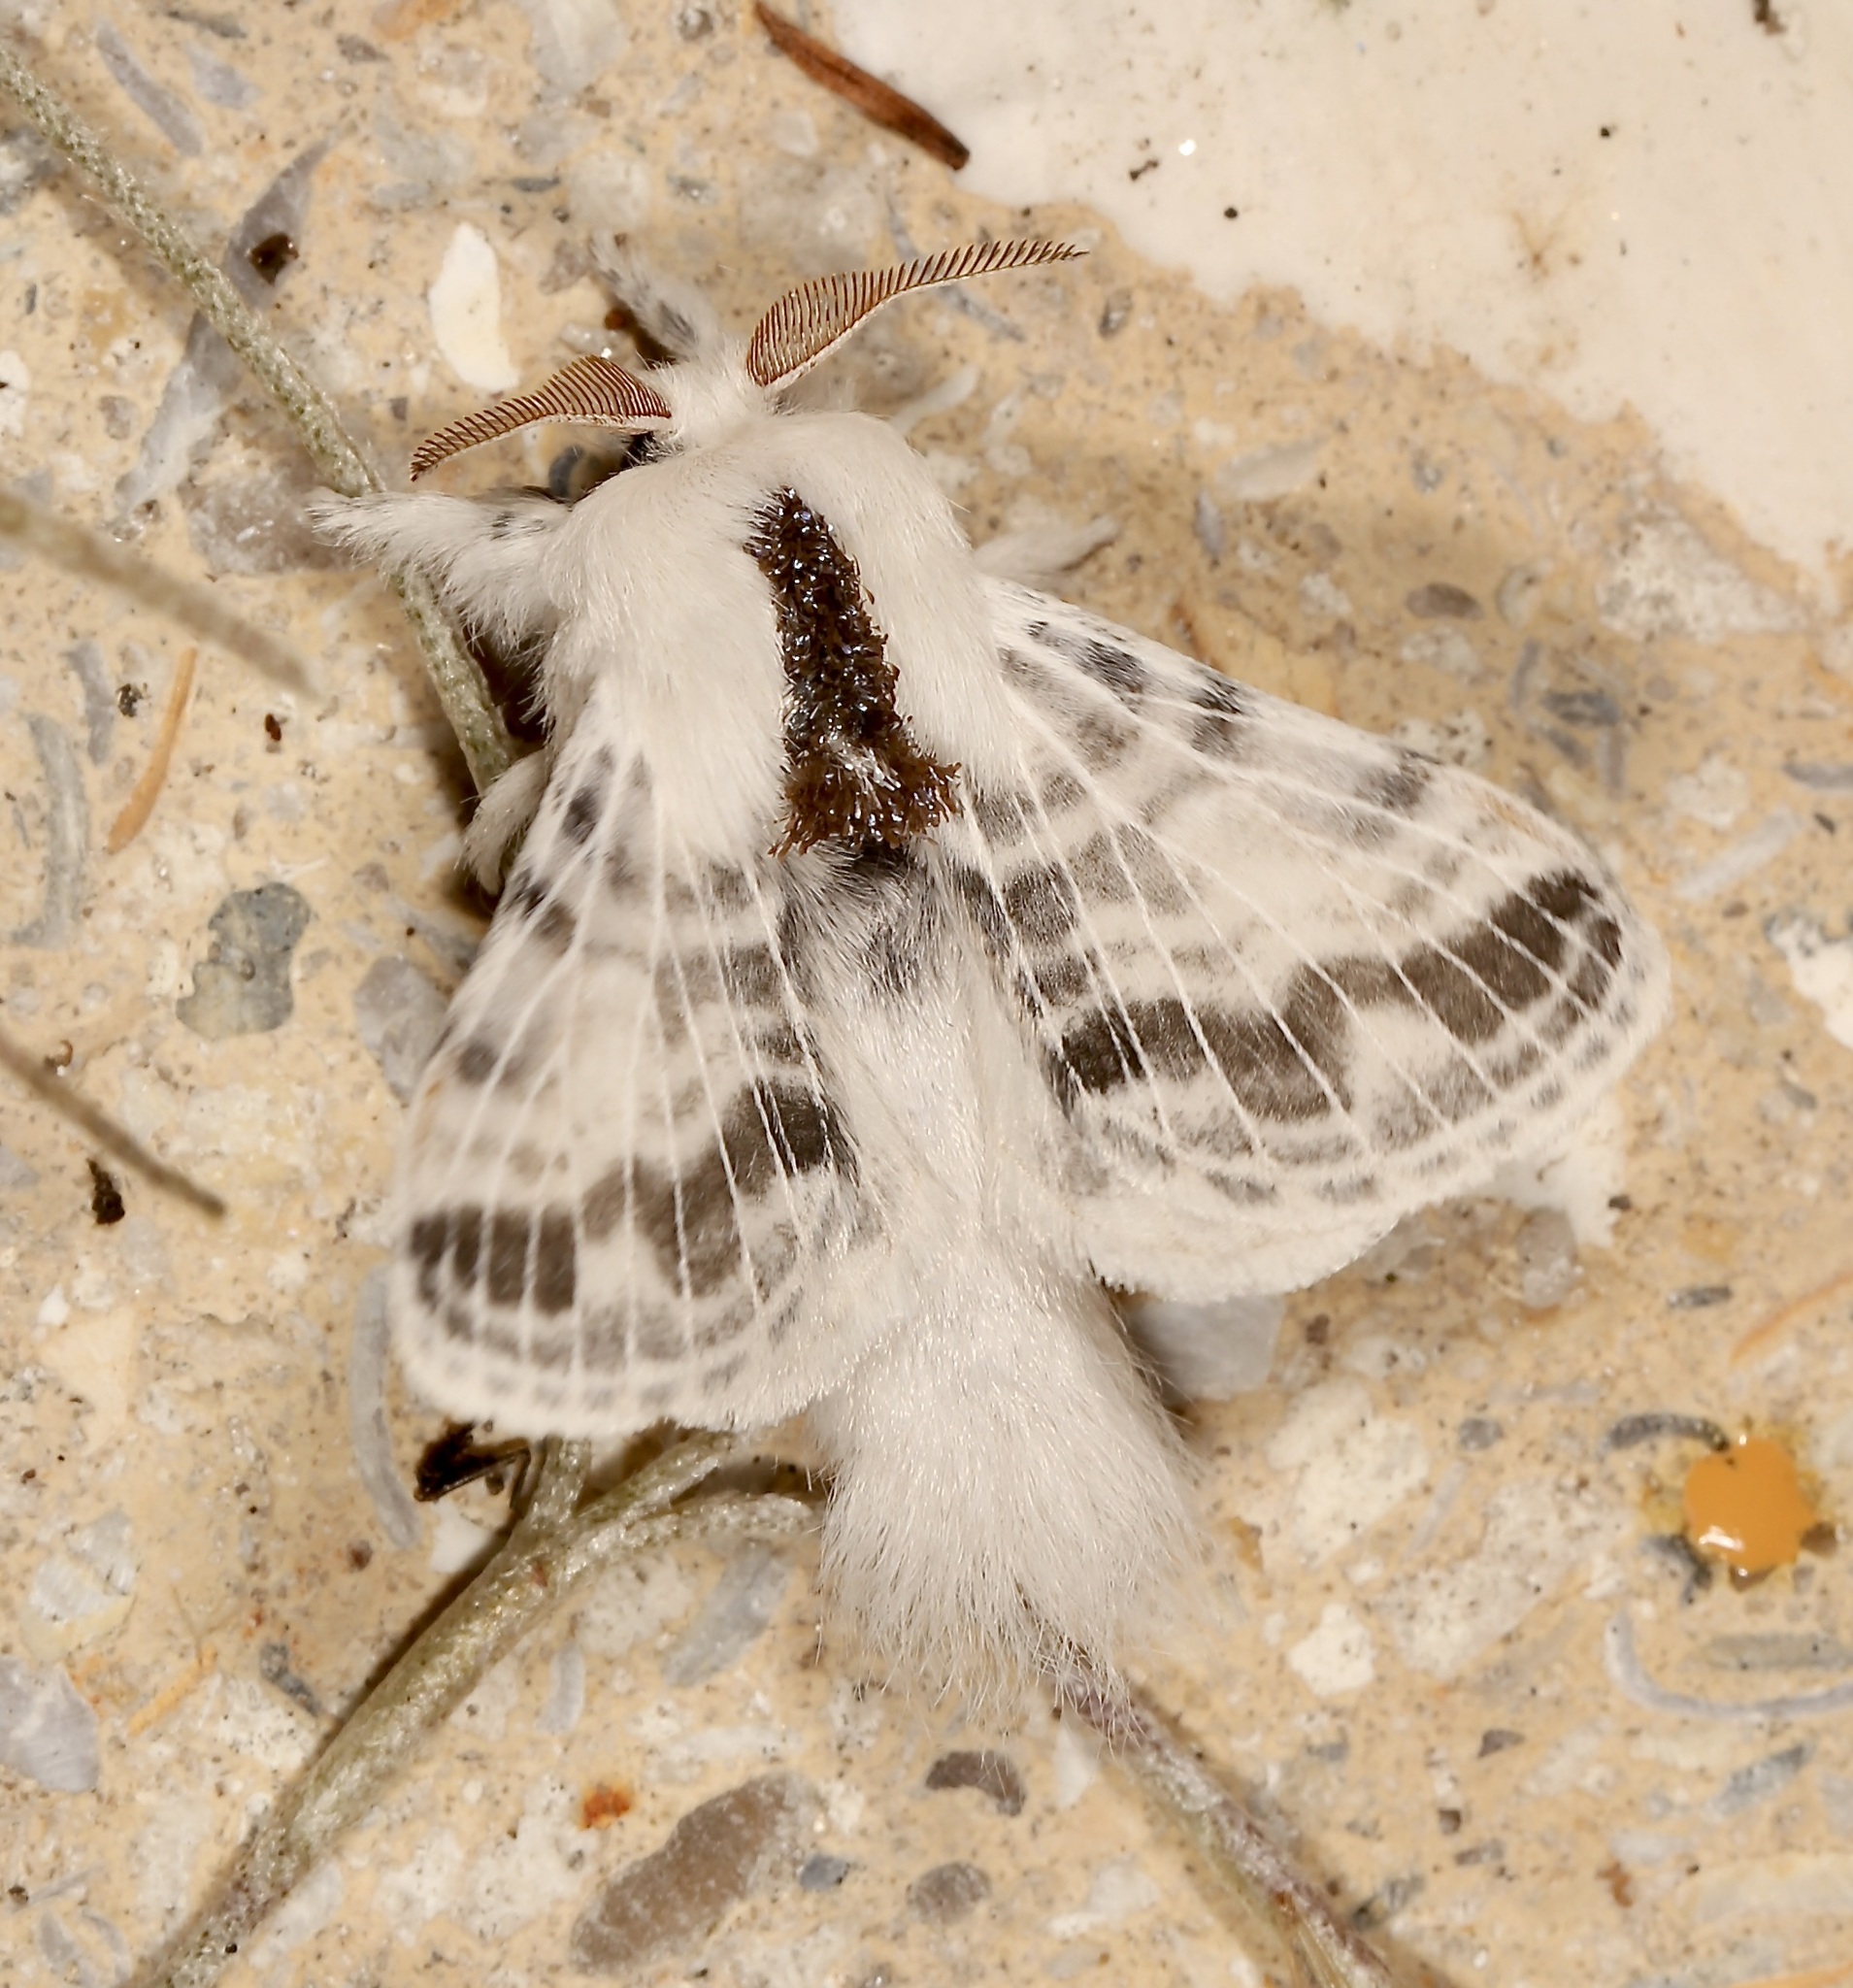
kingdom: Animalia
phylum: Arthropoda
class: Insecta
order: Lepidoptera
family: Lasiocampidae
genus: Tolype
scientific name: Tolype minta
